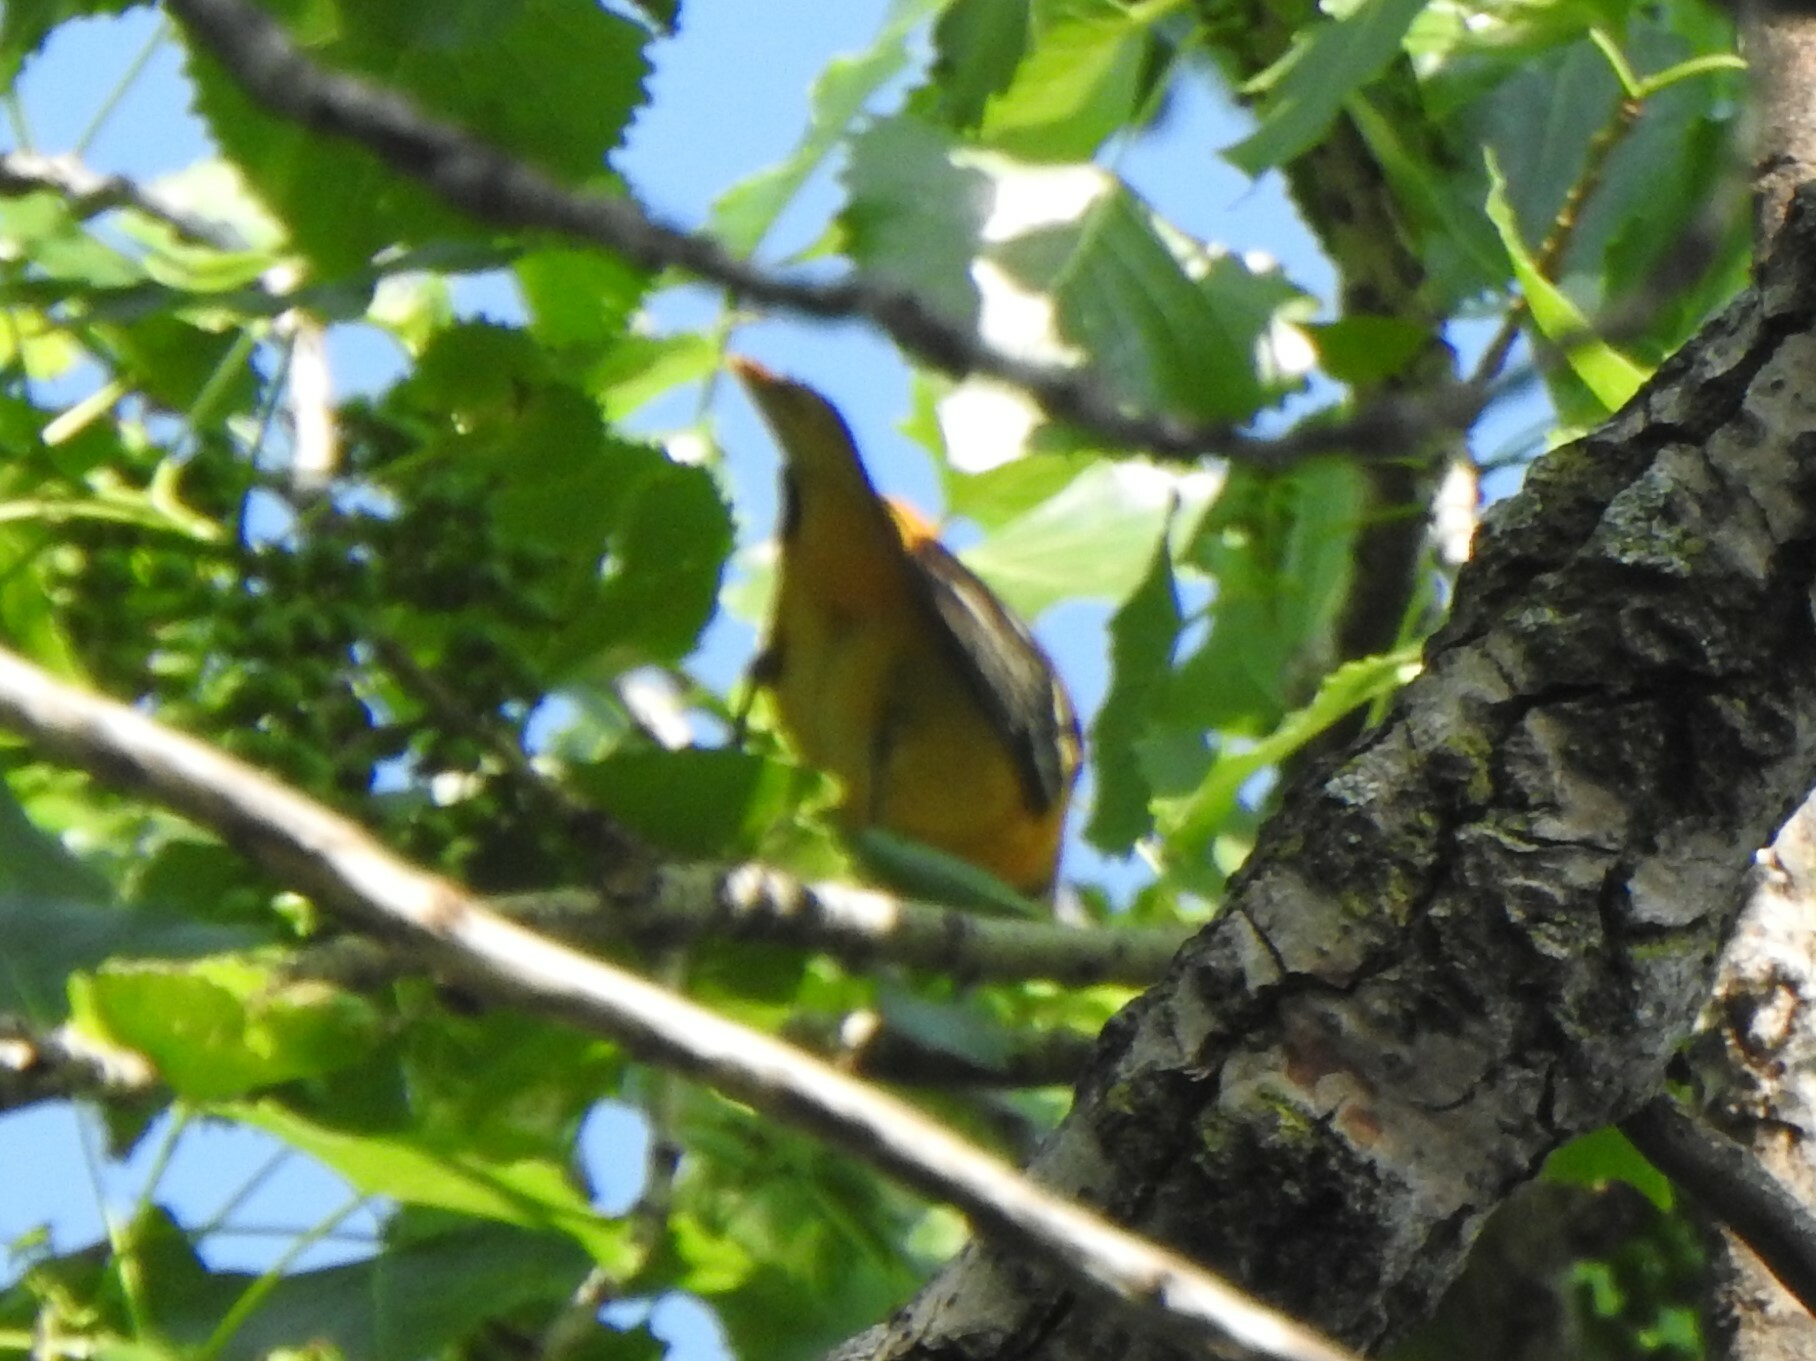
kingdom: Animalia
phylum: Chordata
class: Aves
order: Passeriformes
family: Icteridae
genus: Icterus
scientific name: Icterus galbula
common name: Baltimore oriole
